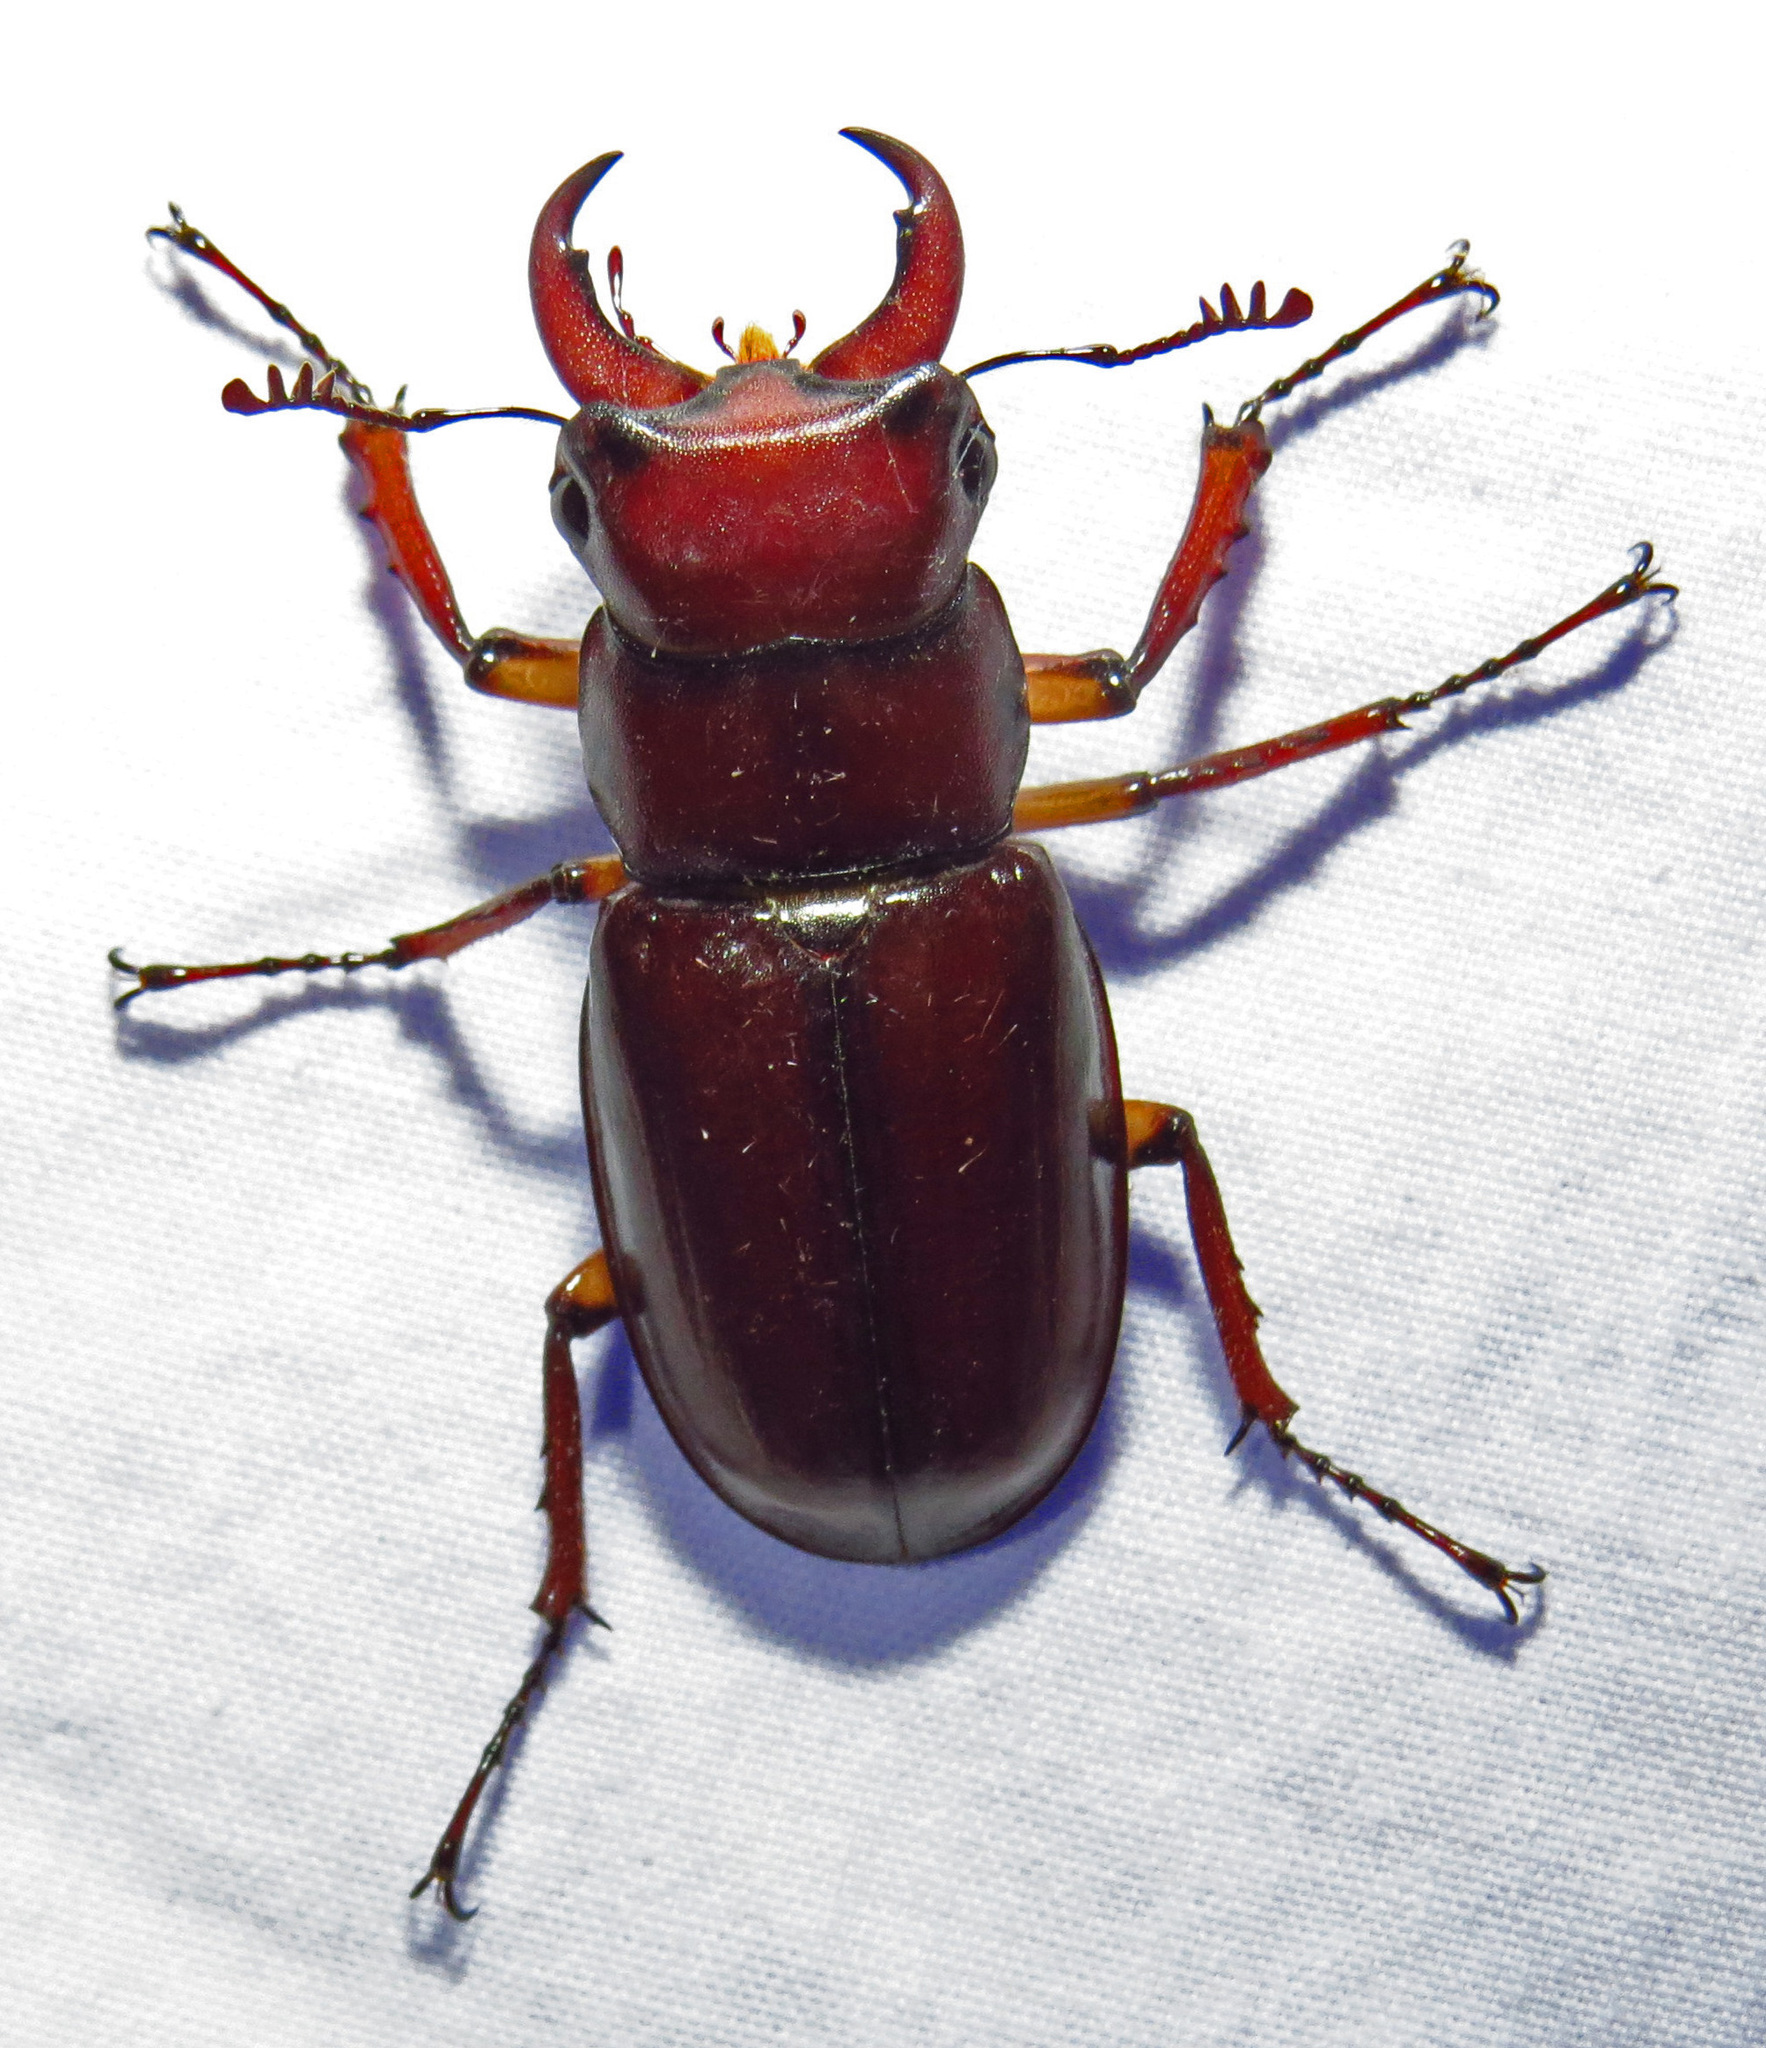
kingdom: Animalia
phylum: Arthropoda
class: Insecta
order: Coleoptera
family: Lucanidae
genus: Lucanus
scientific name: Lucanus capreolus
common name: Stag beetle
